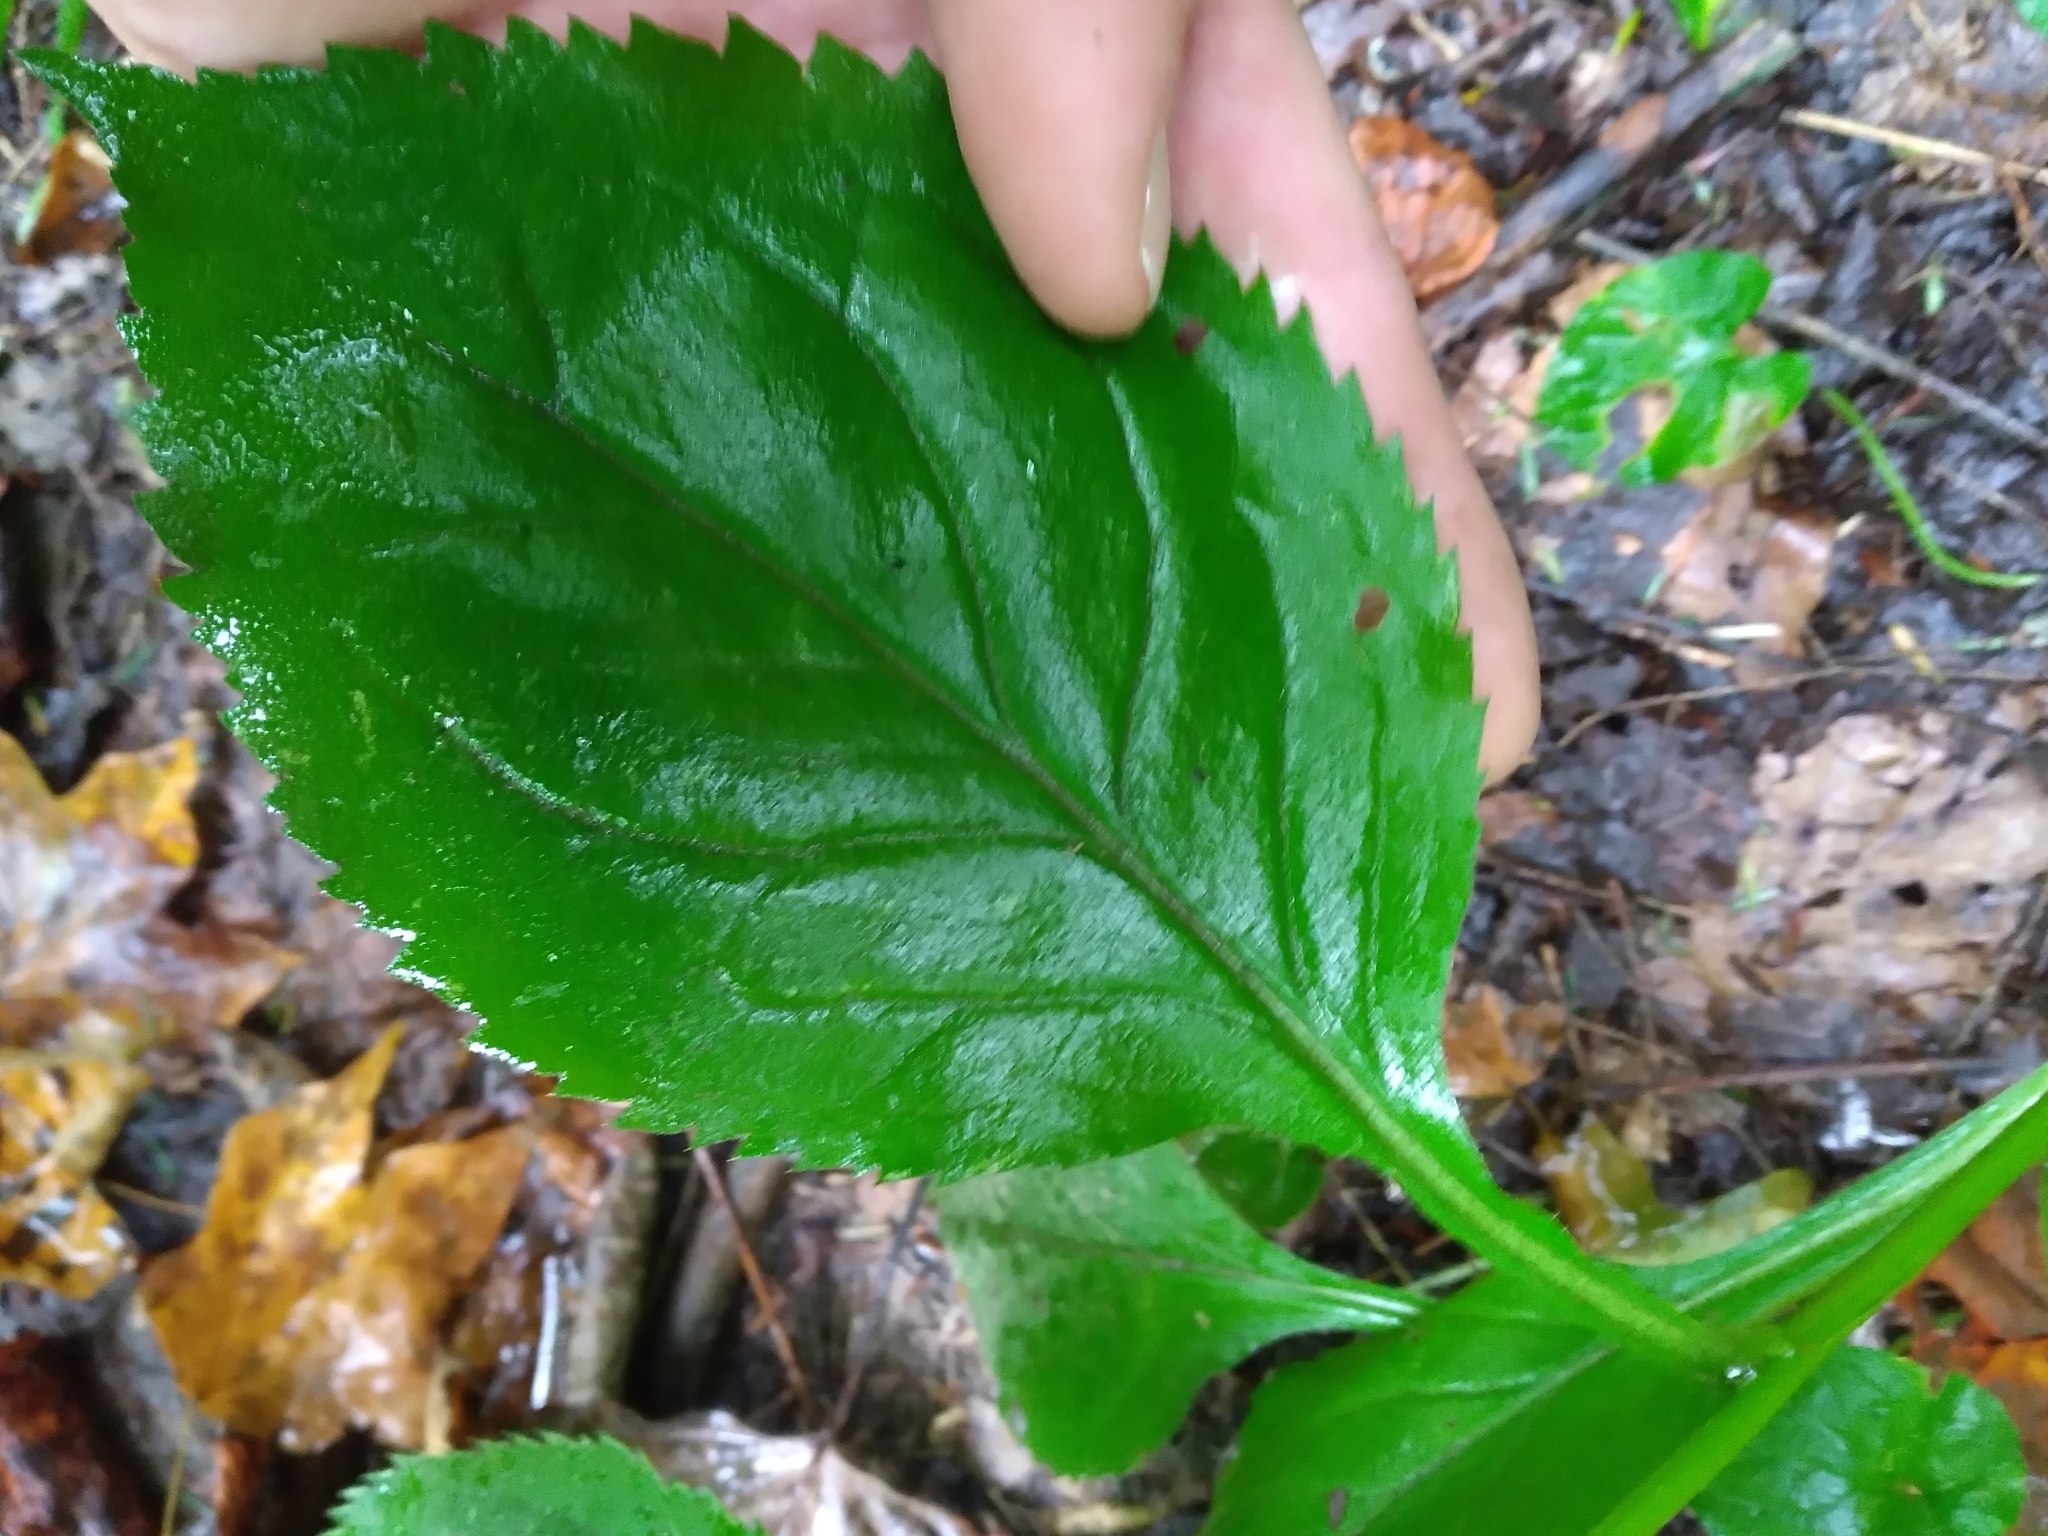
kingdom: Plantae
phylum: Tracheophyta
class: Magnoliopsida
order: Asterales
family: Asteraceae
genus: Solidago
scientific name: Solidago flexicaulis
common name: Zig-zag goldenrod
